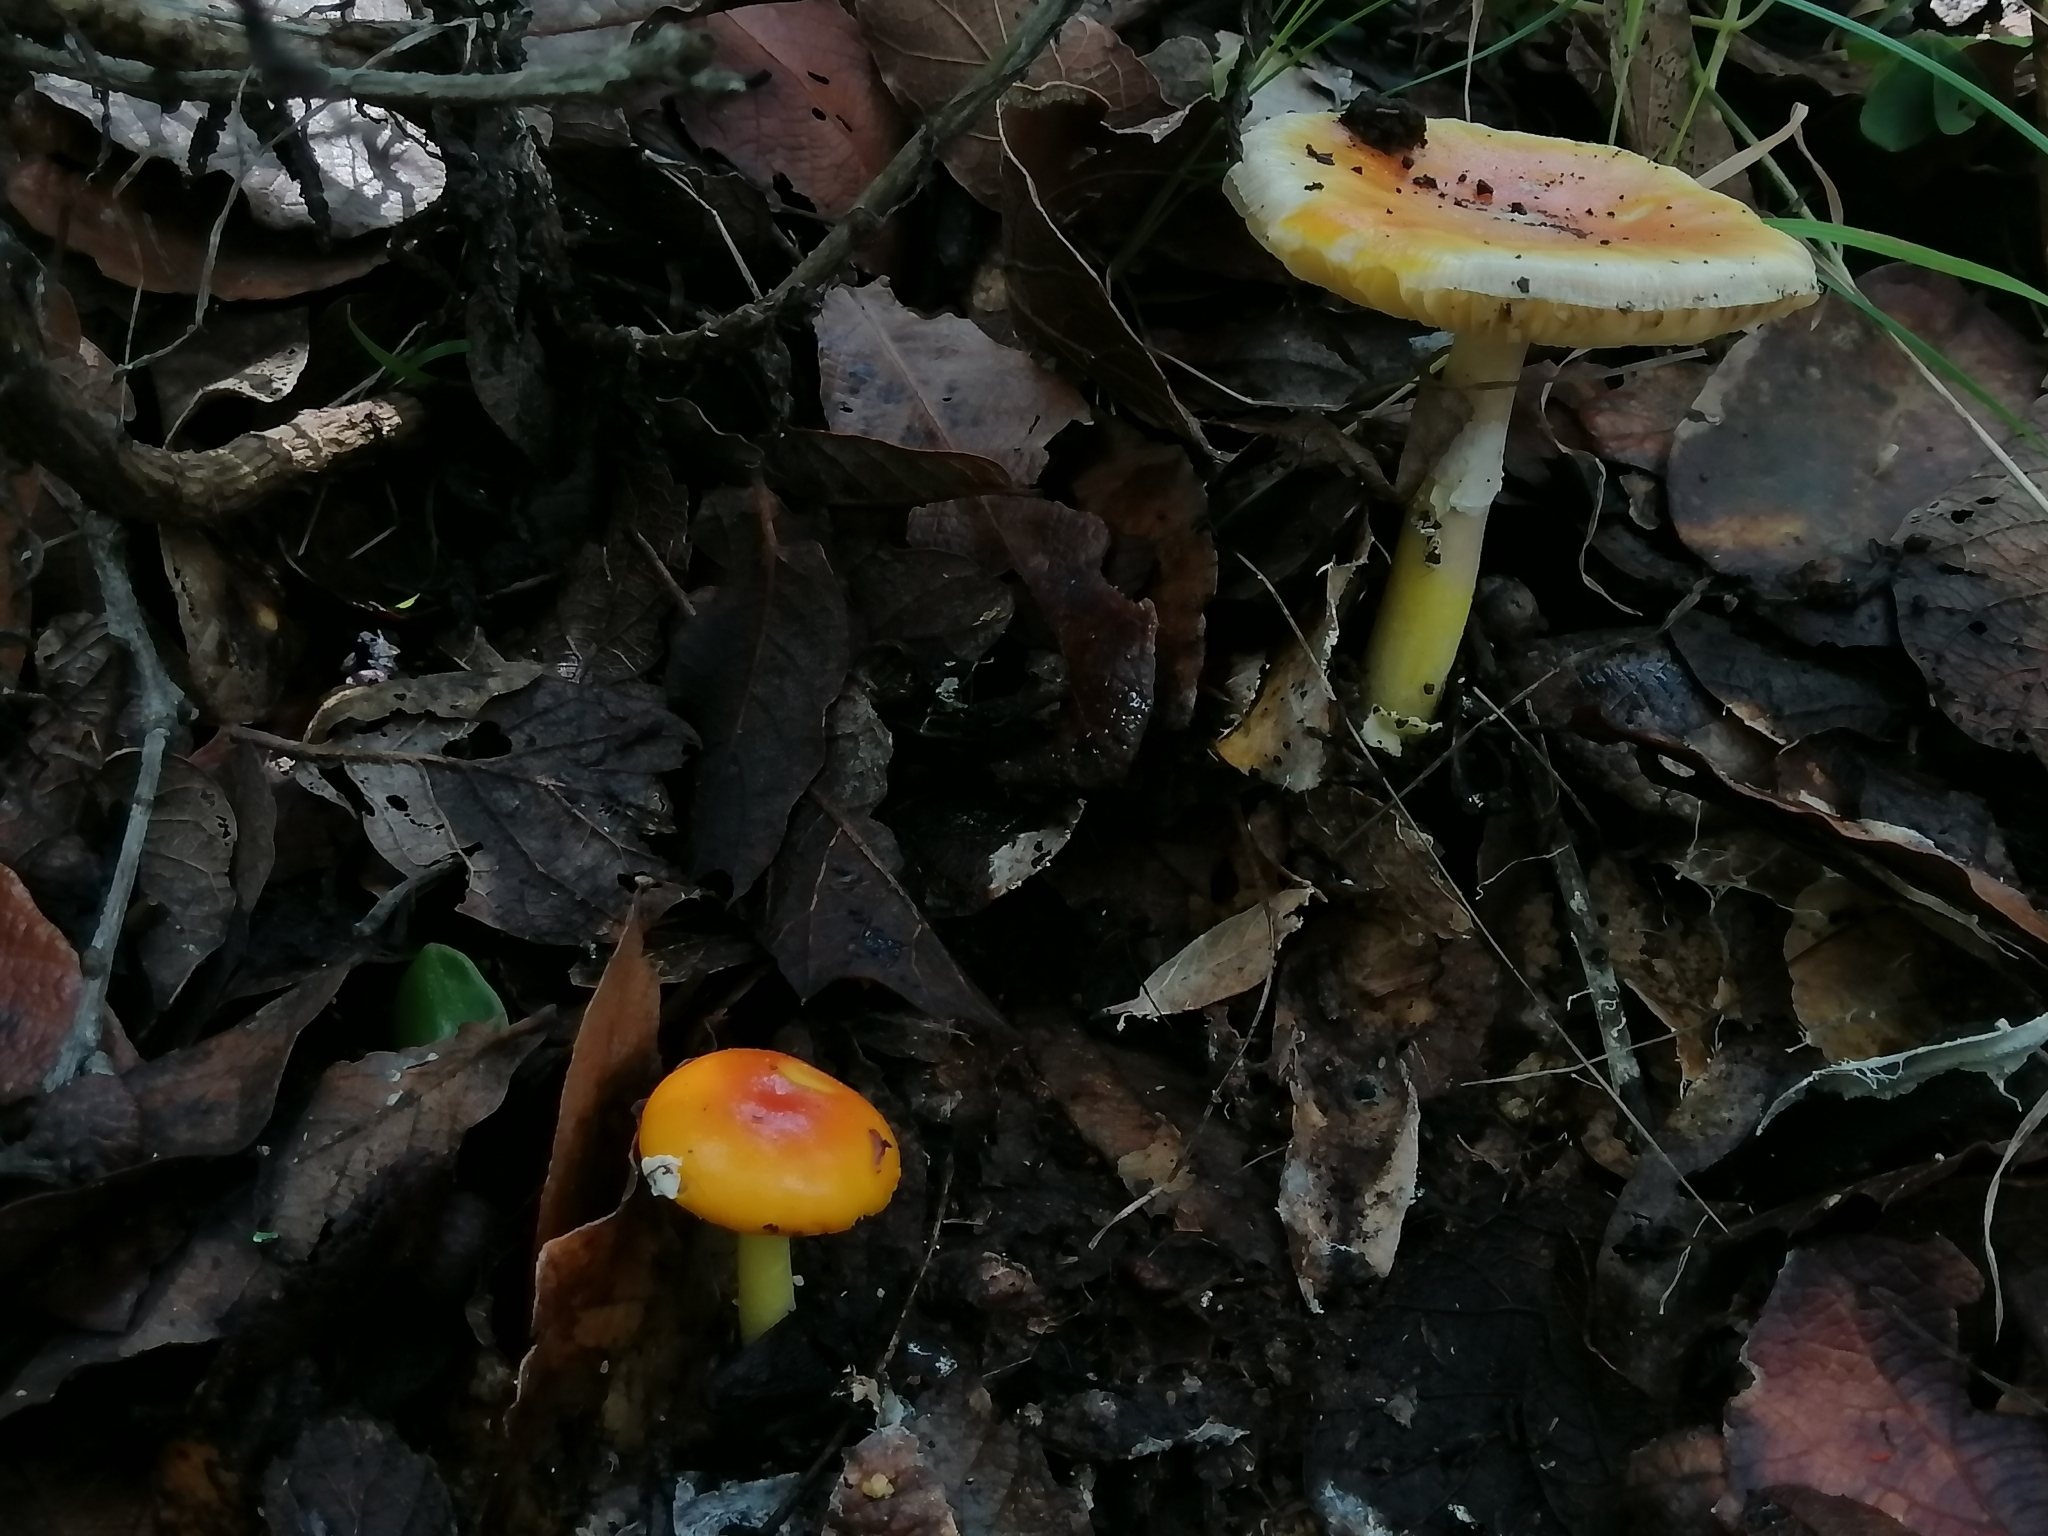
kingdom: Fungi
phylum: Basidiomycota
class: Agaricomycetes
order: Agaricales
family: Amanitaceae
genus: Amanita
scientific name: Amanita flavoconia
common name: Yellow patches
